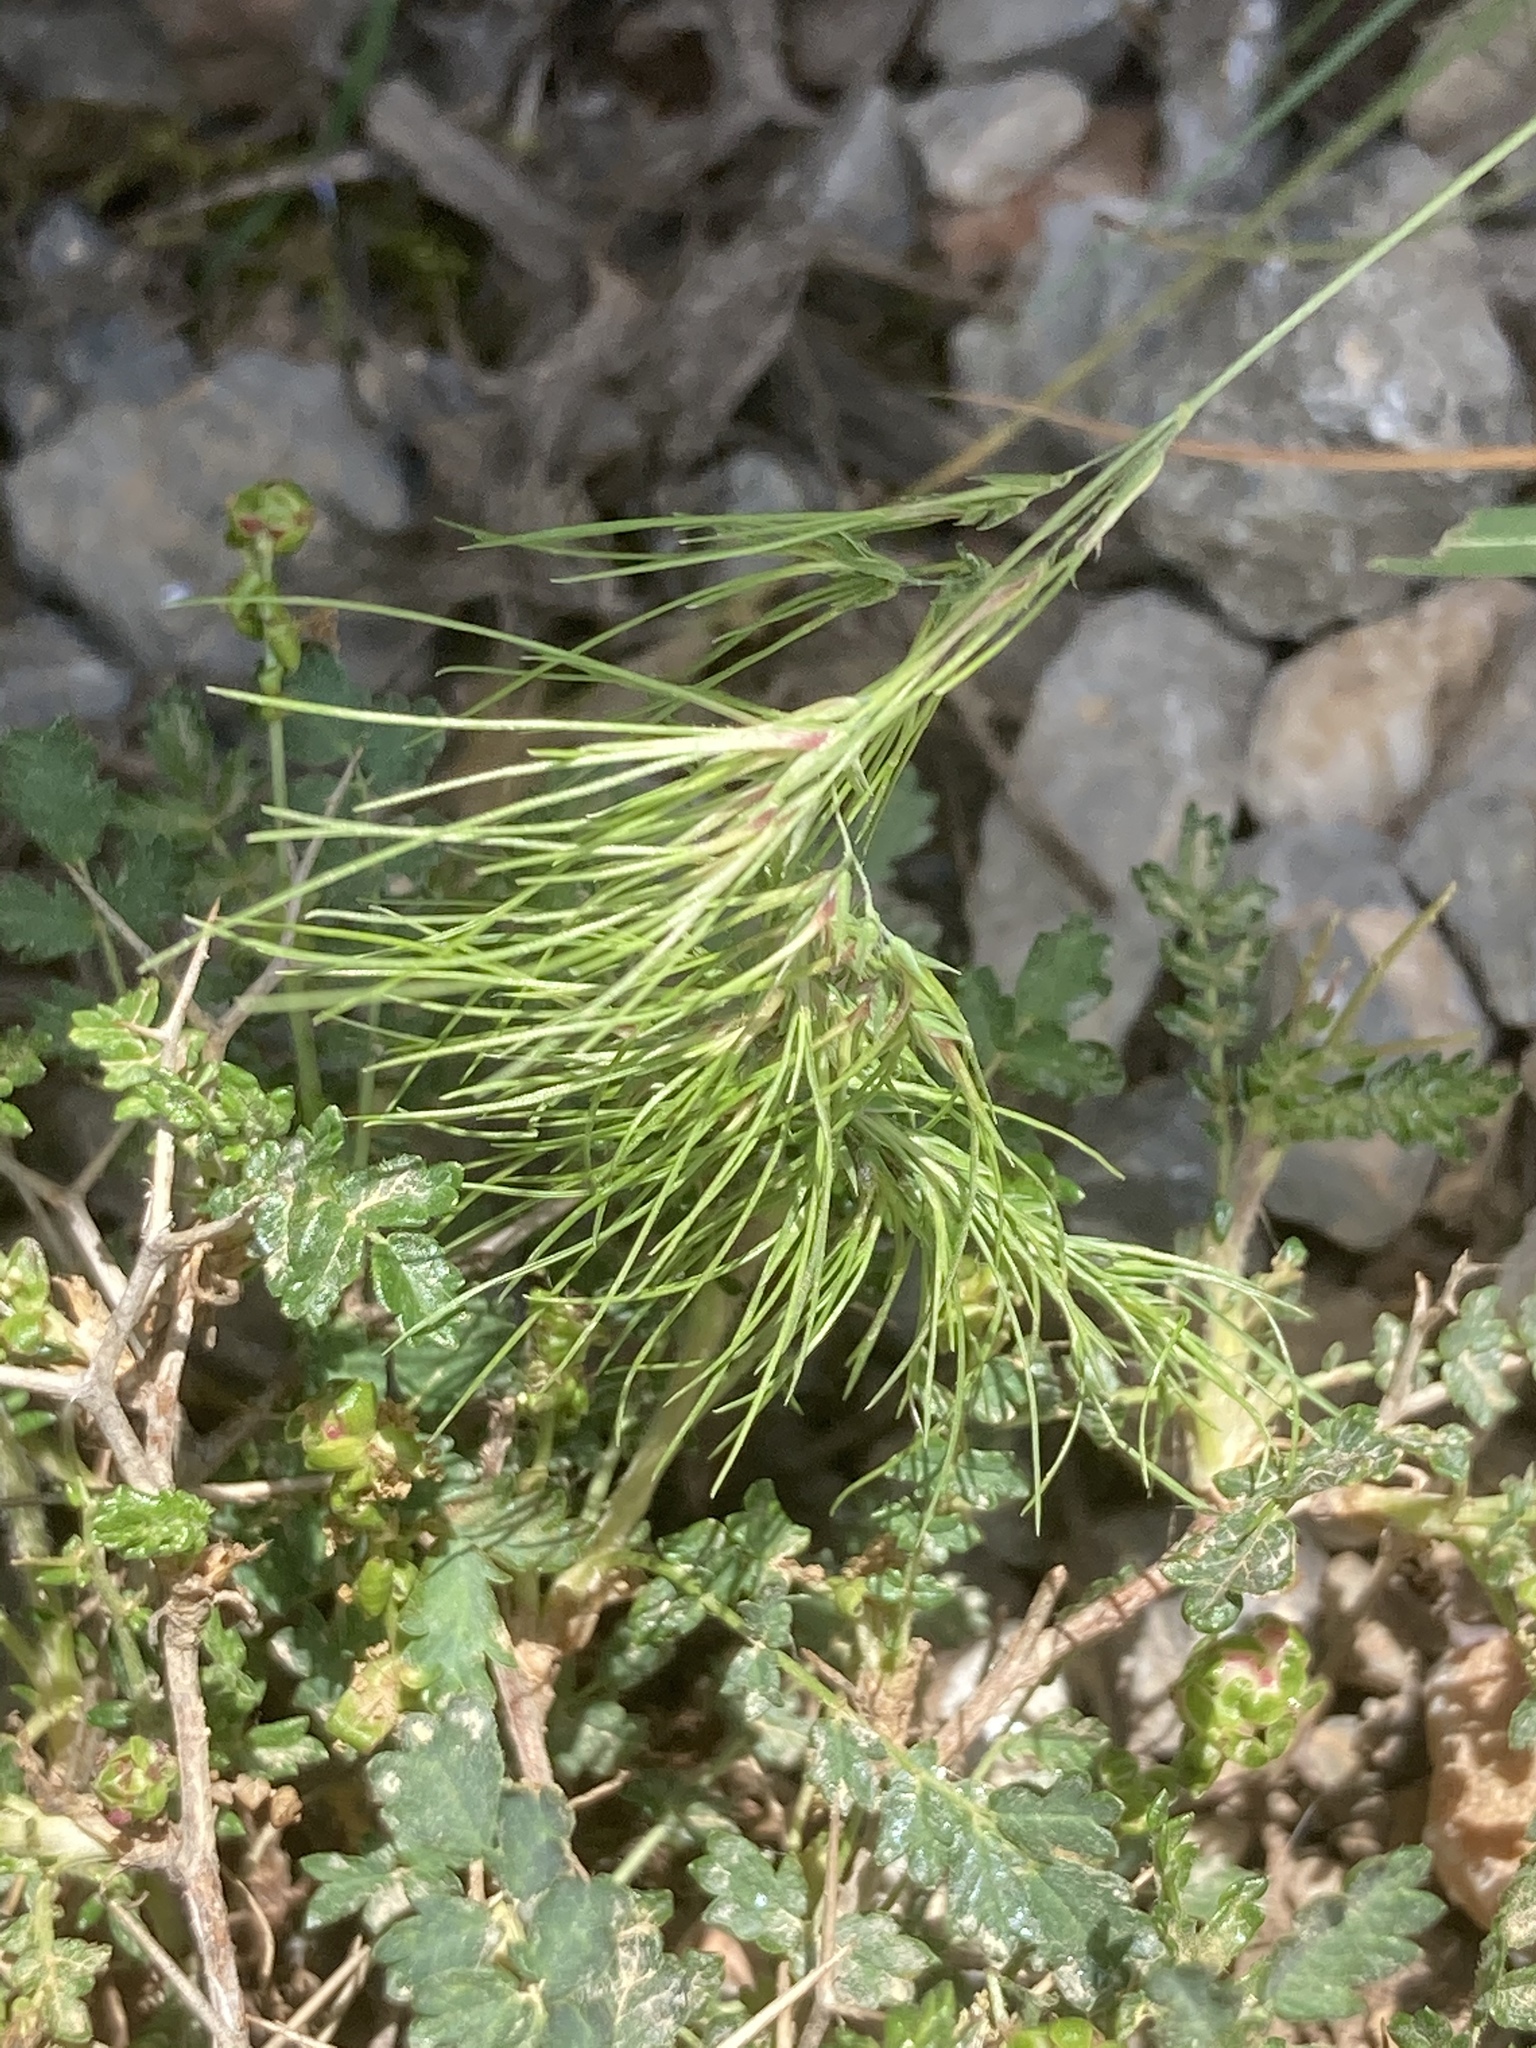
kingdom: Plantae
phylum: Tracheophyta
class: Liliopsida
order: Poales
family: Poaceae
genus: Poa
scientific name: Poa bulbosa
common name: Bulbous bluegrass
